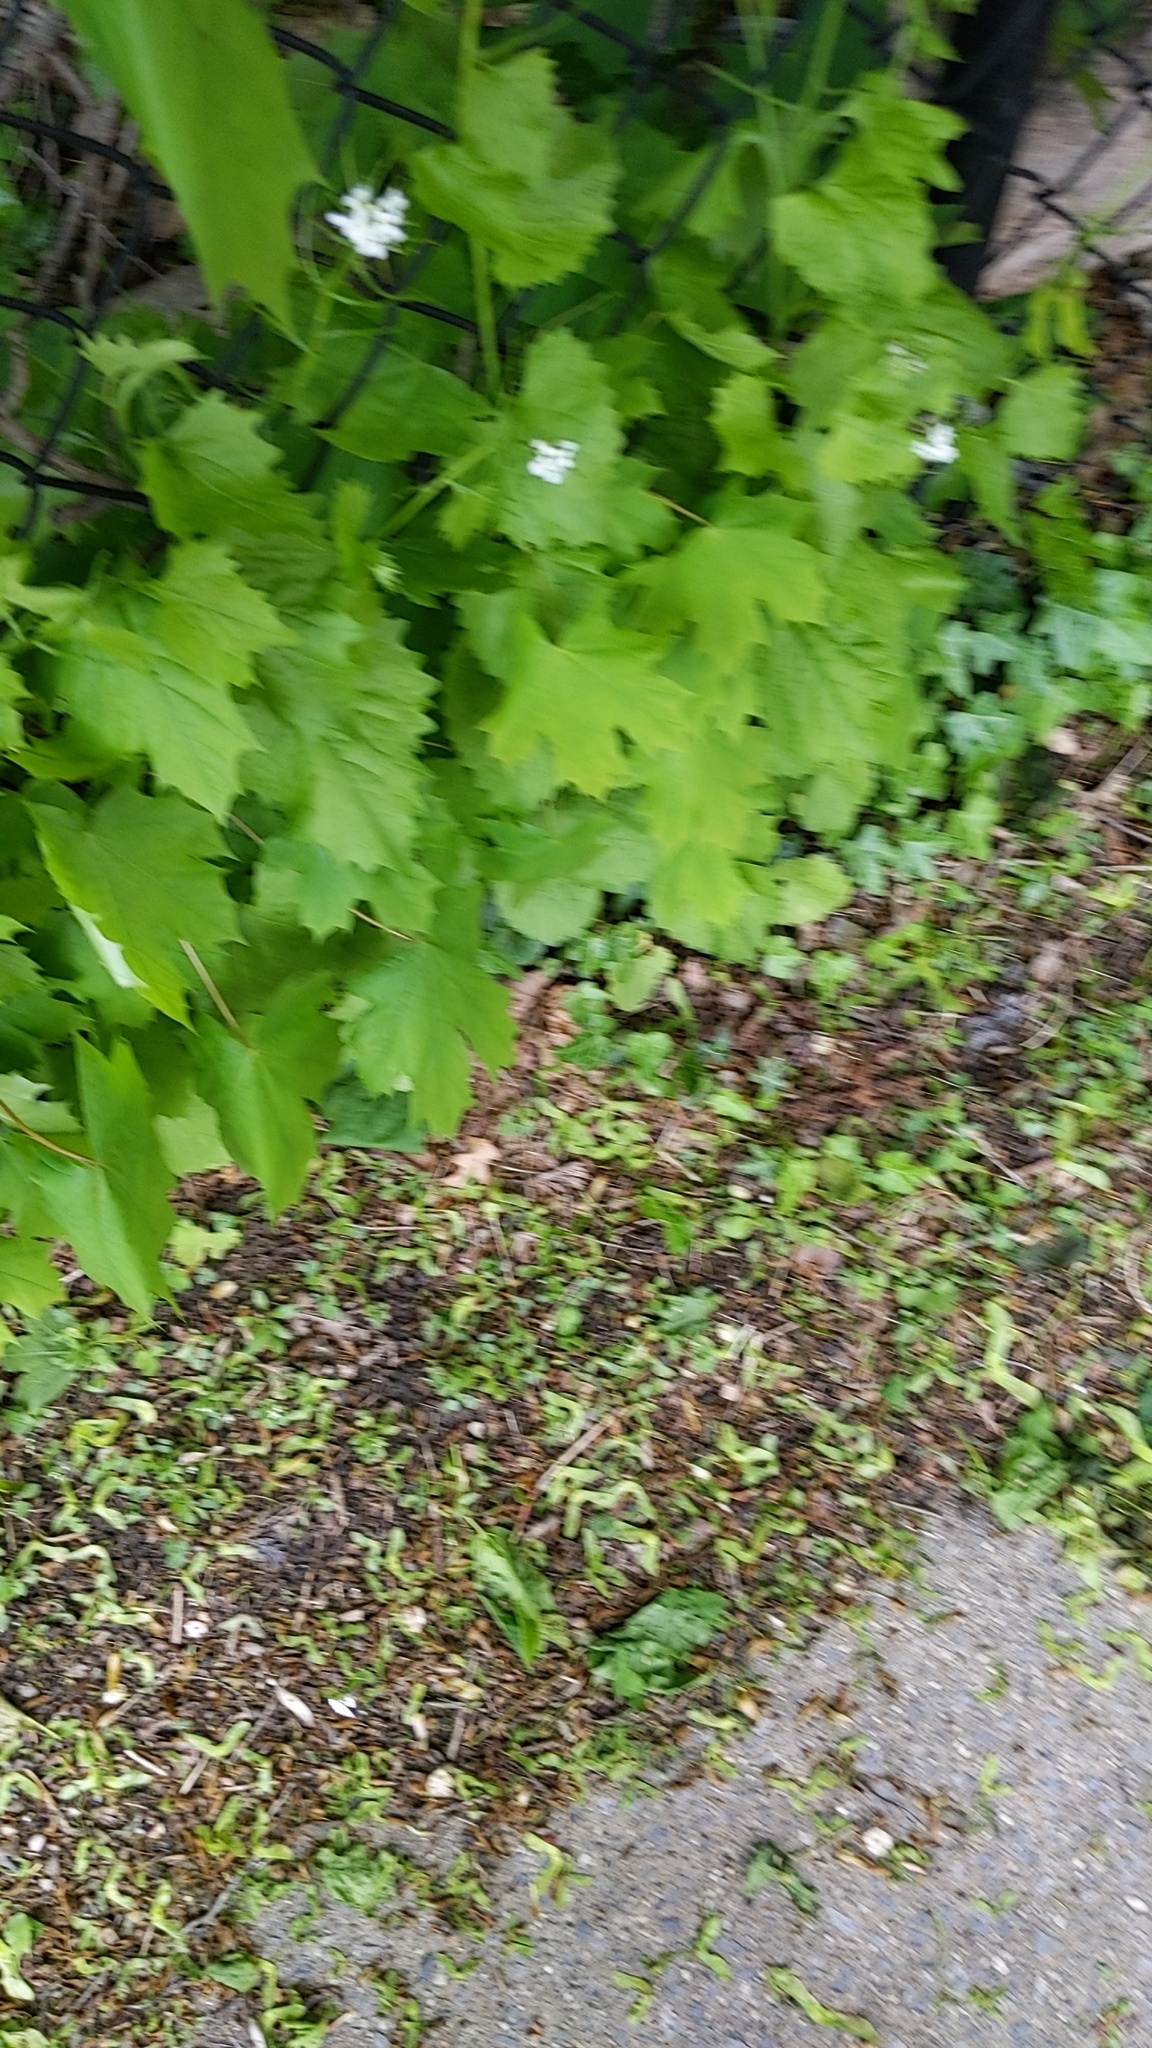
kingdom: Plantae
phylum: Tracheophyta
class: Magnoliopsida
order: Brassicales
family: Brassicaceae
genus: Alliaria
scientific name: Alliaria petiolata
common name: Garlic mustard
